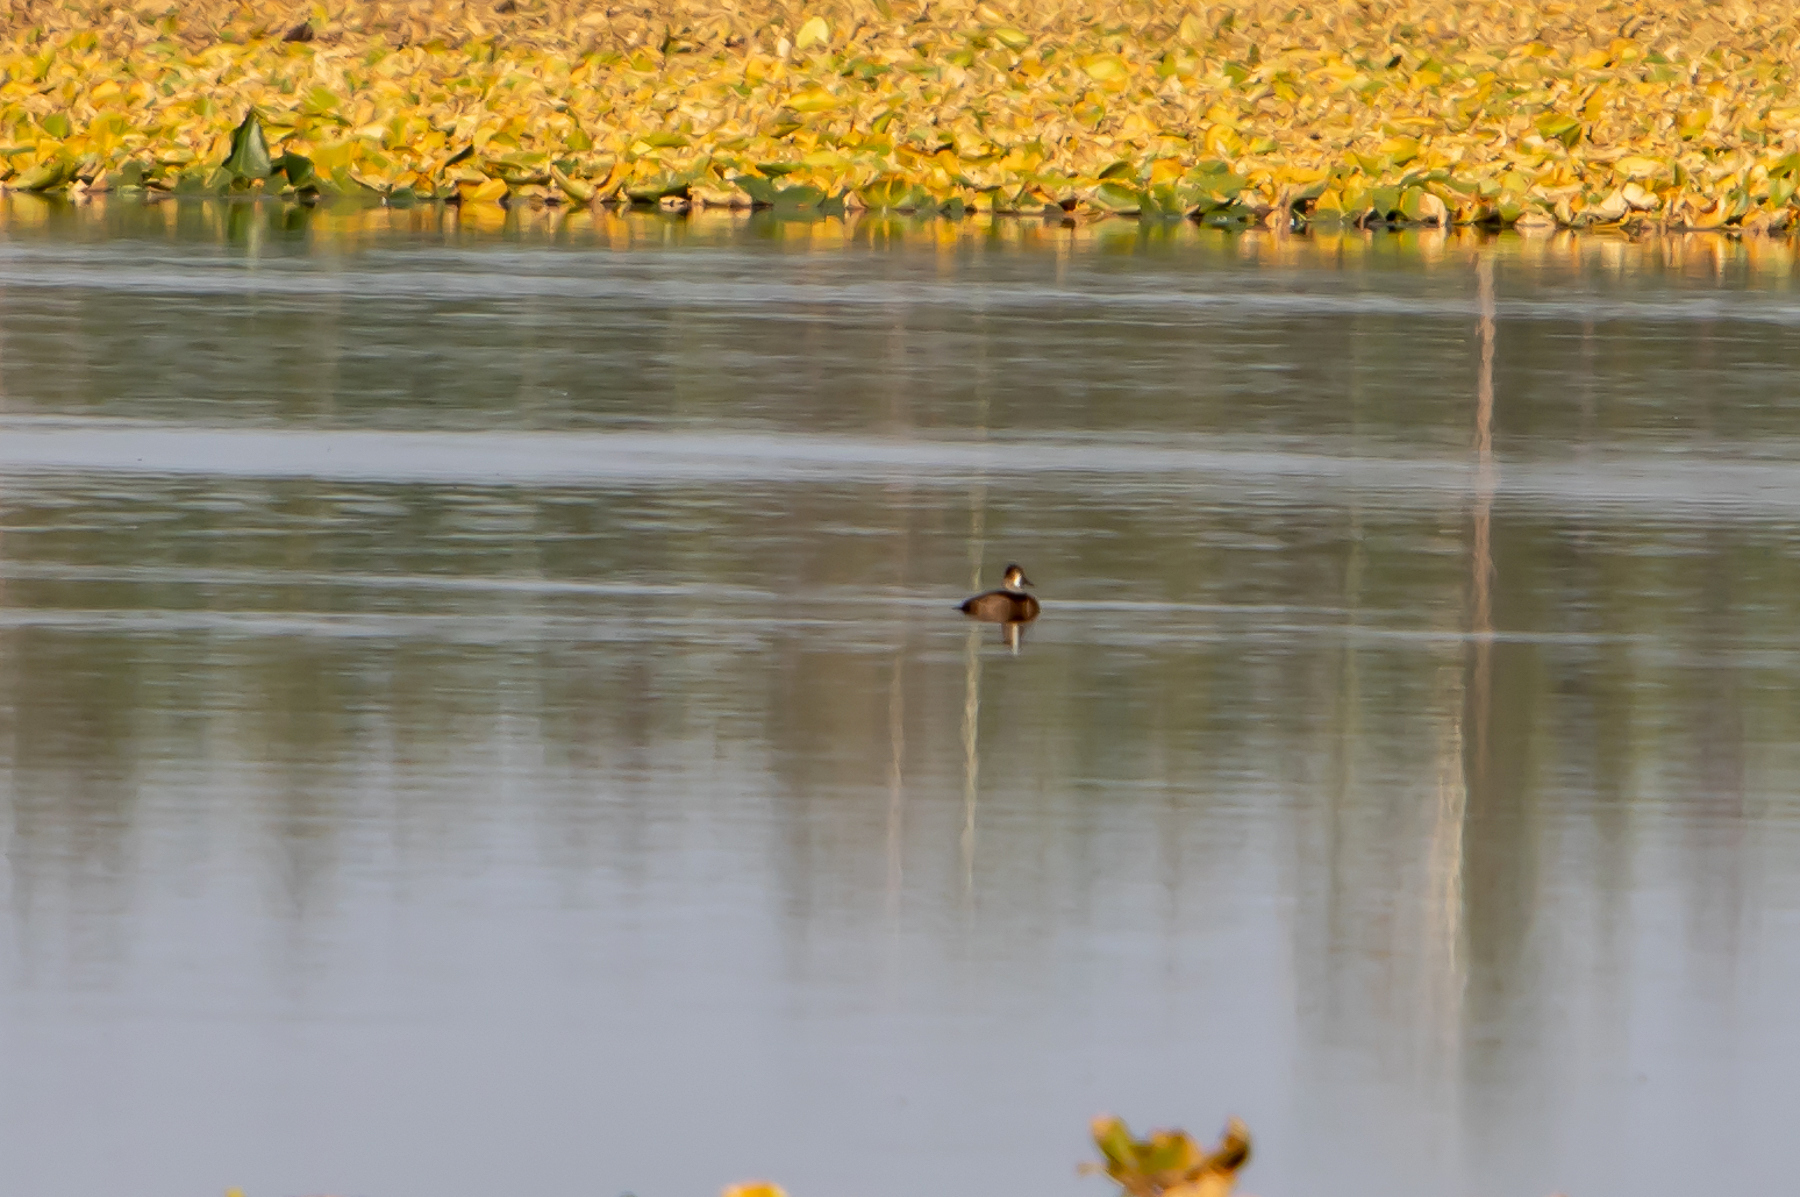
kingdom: Animalia
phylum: Chordata
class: Aves
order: Anseriformes
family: Anatidae
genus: Aythya
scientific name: Aythya affinis
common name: Lesser scaup
